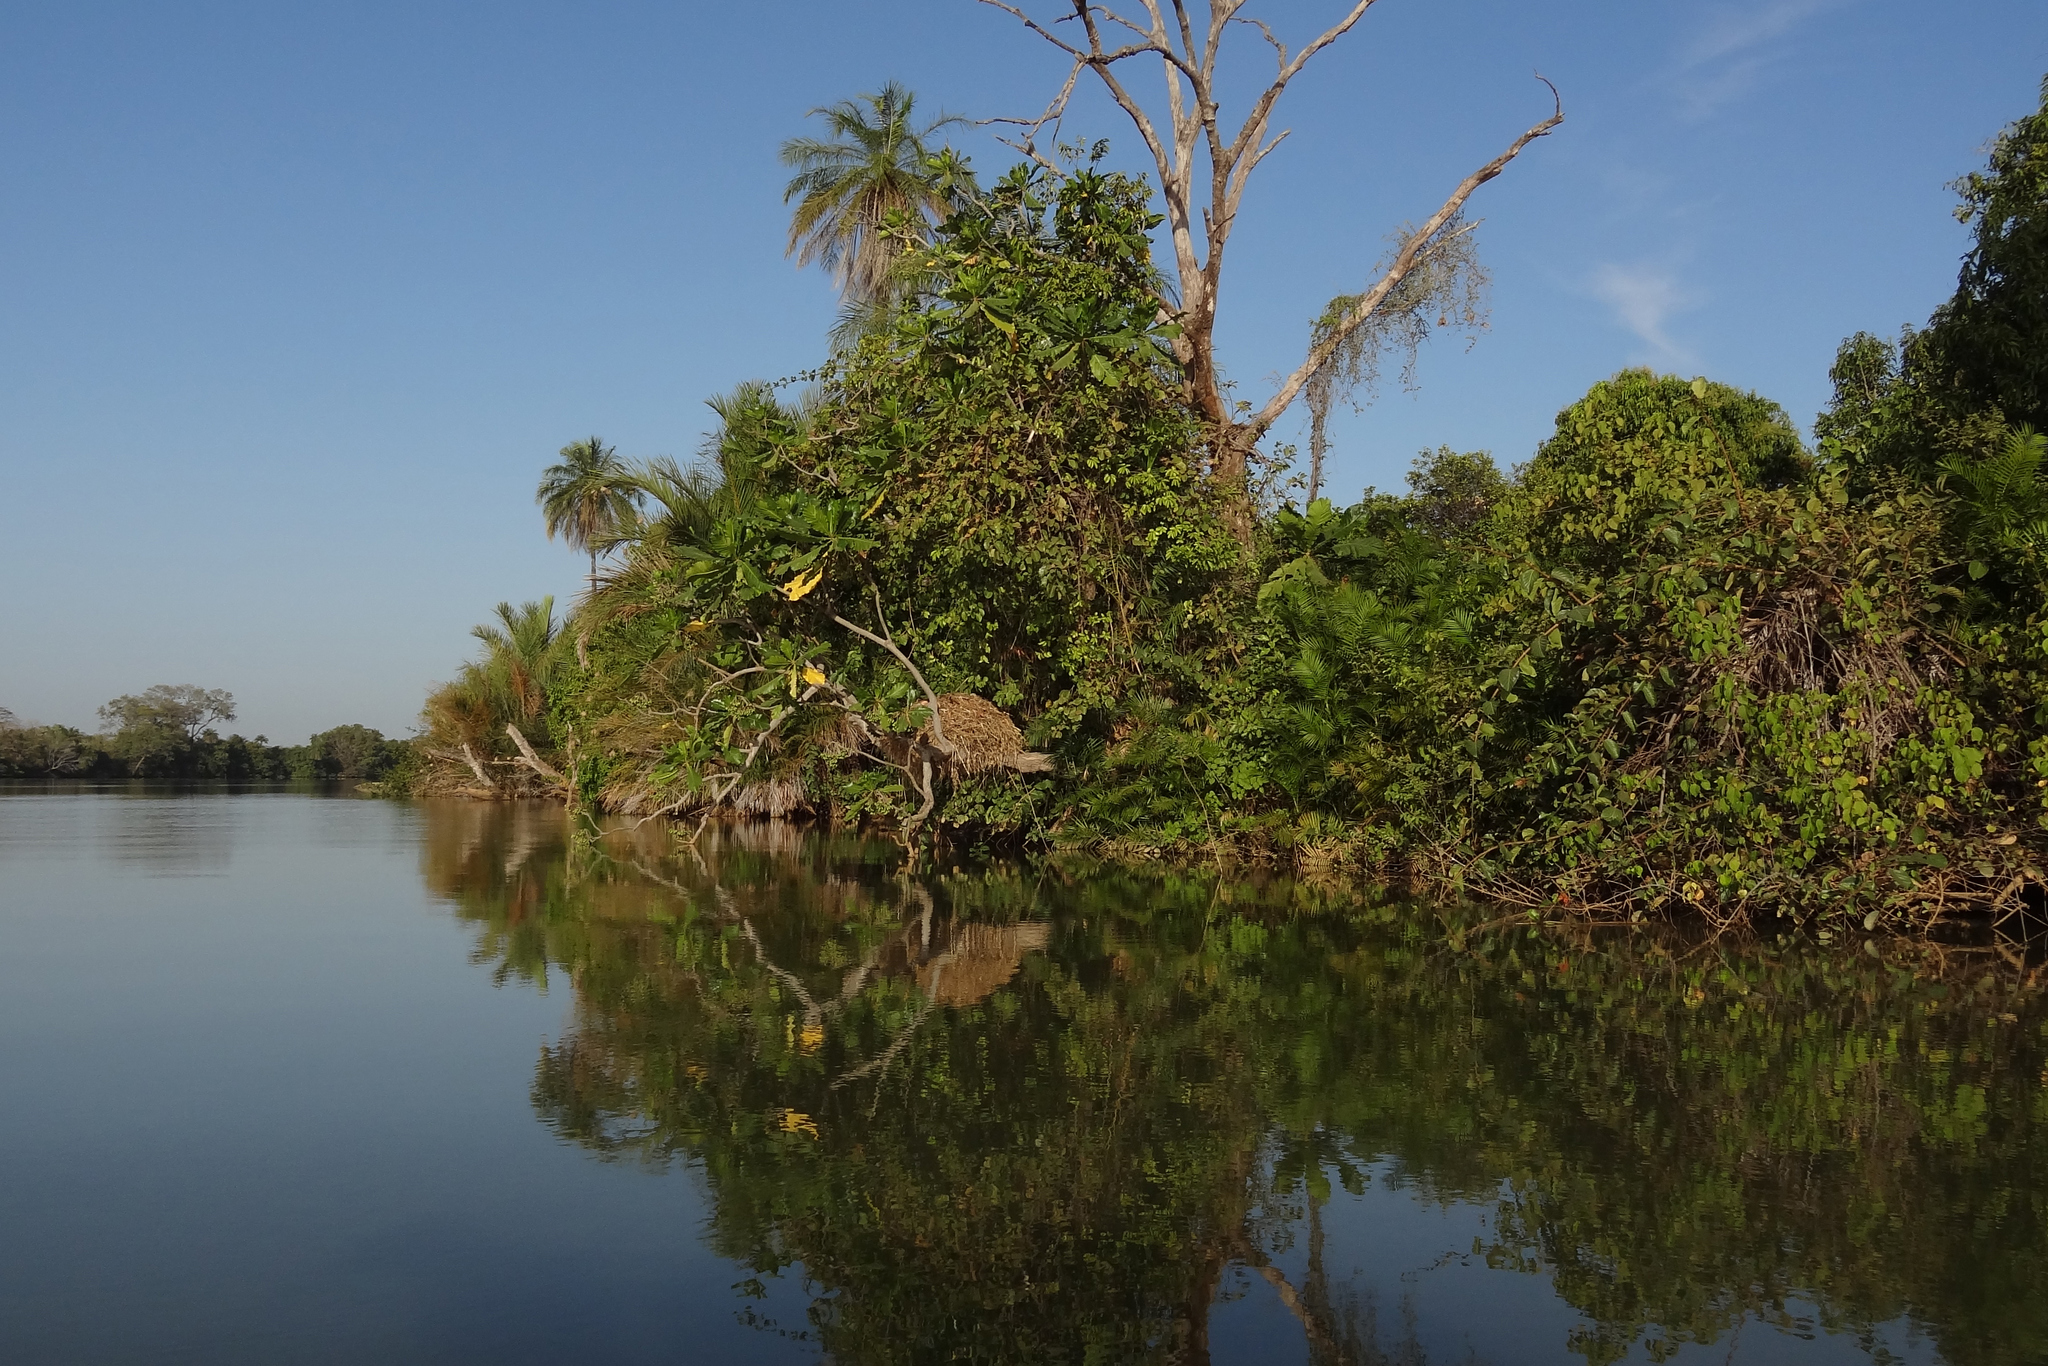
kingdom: Animalia
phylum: Chordata
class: Aves
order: Pelecaniformes
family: Scopidae
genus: Scopus
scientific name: Scopus umbretta
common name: Hamerkop
